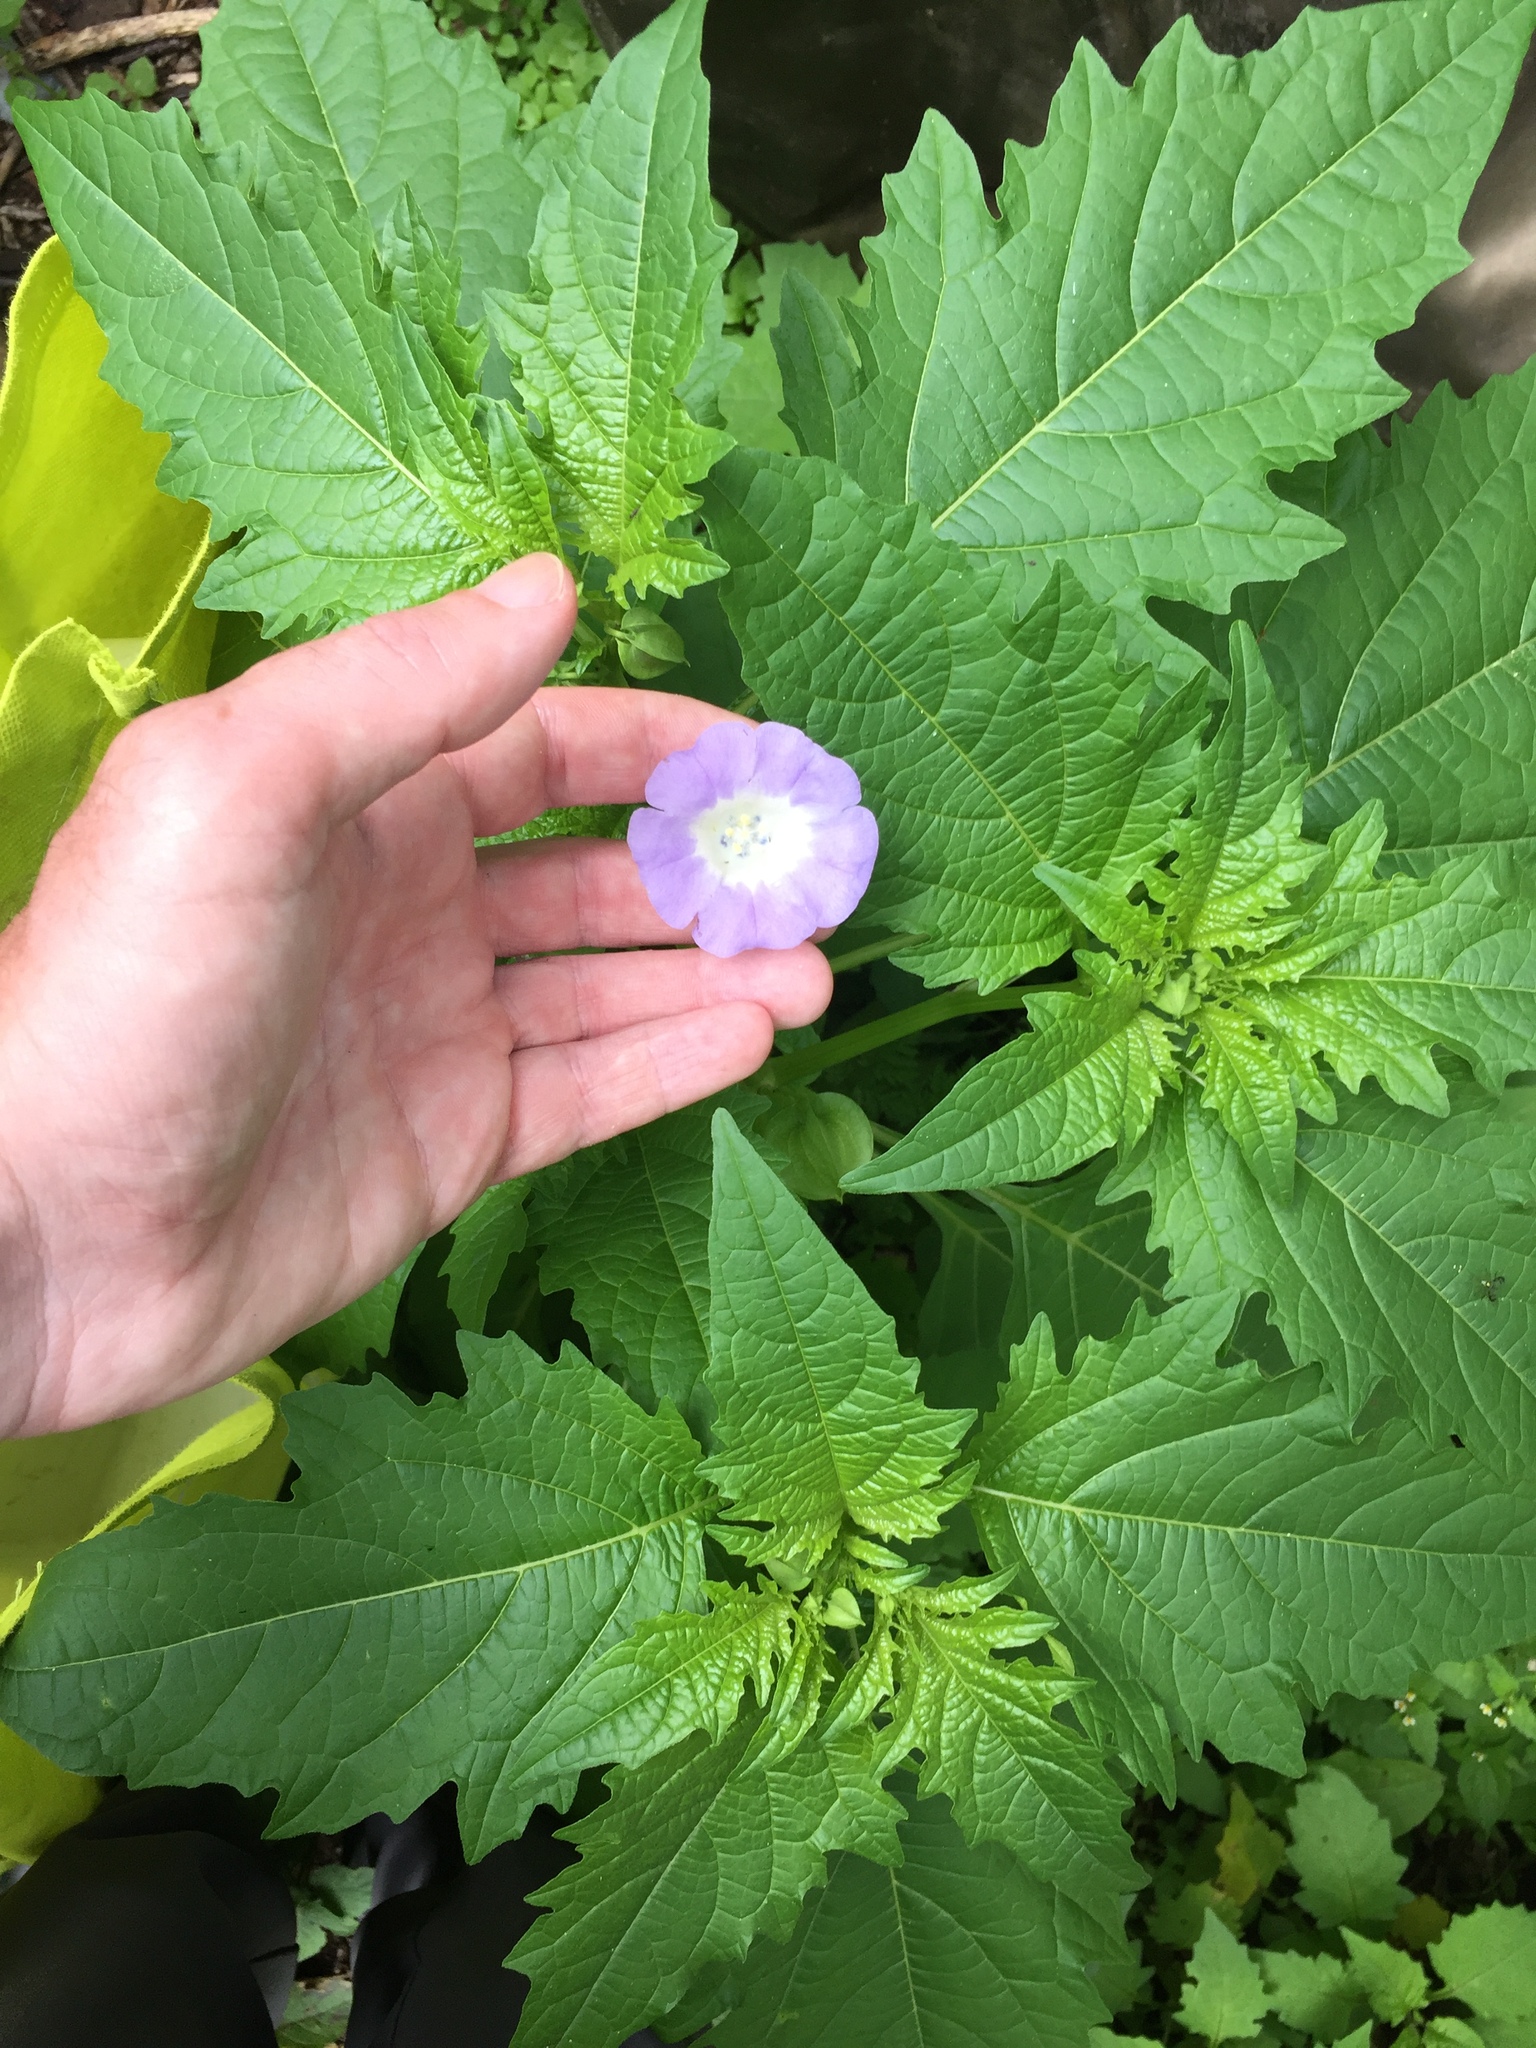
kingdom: Plantae
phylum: Tracheophyta
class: Magnoliopsida
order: Solanales
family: Solanaceae
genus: Nicandra
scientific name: Nicandra physalodes
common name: Apple-of-peru
